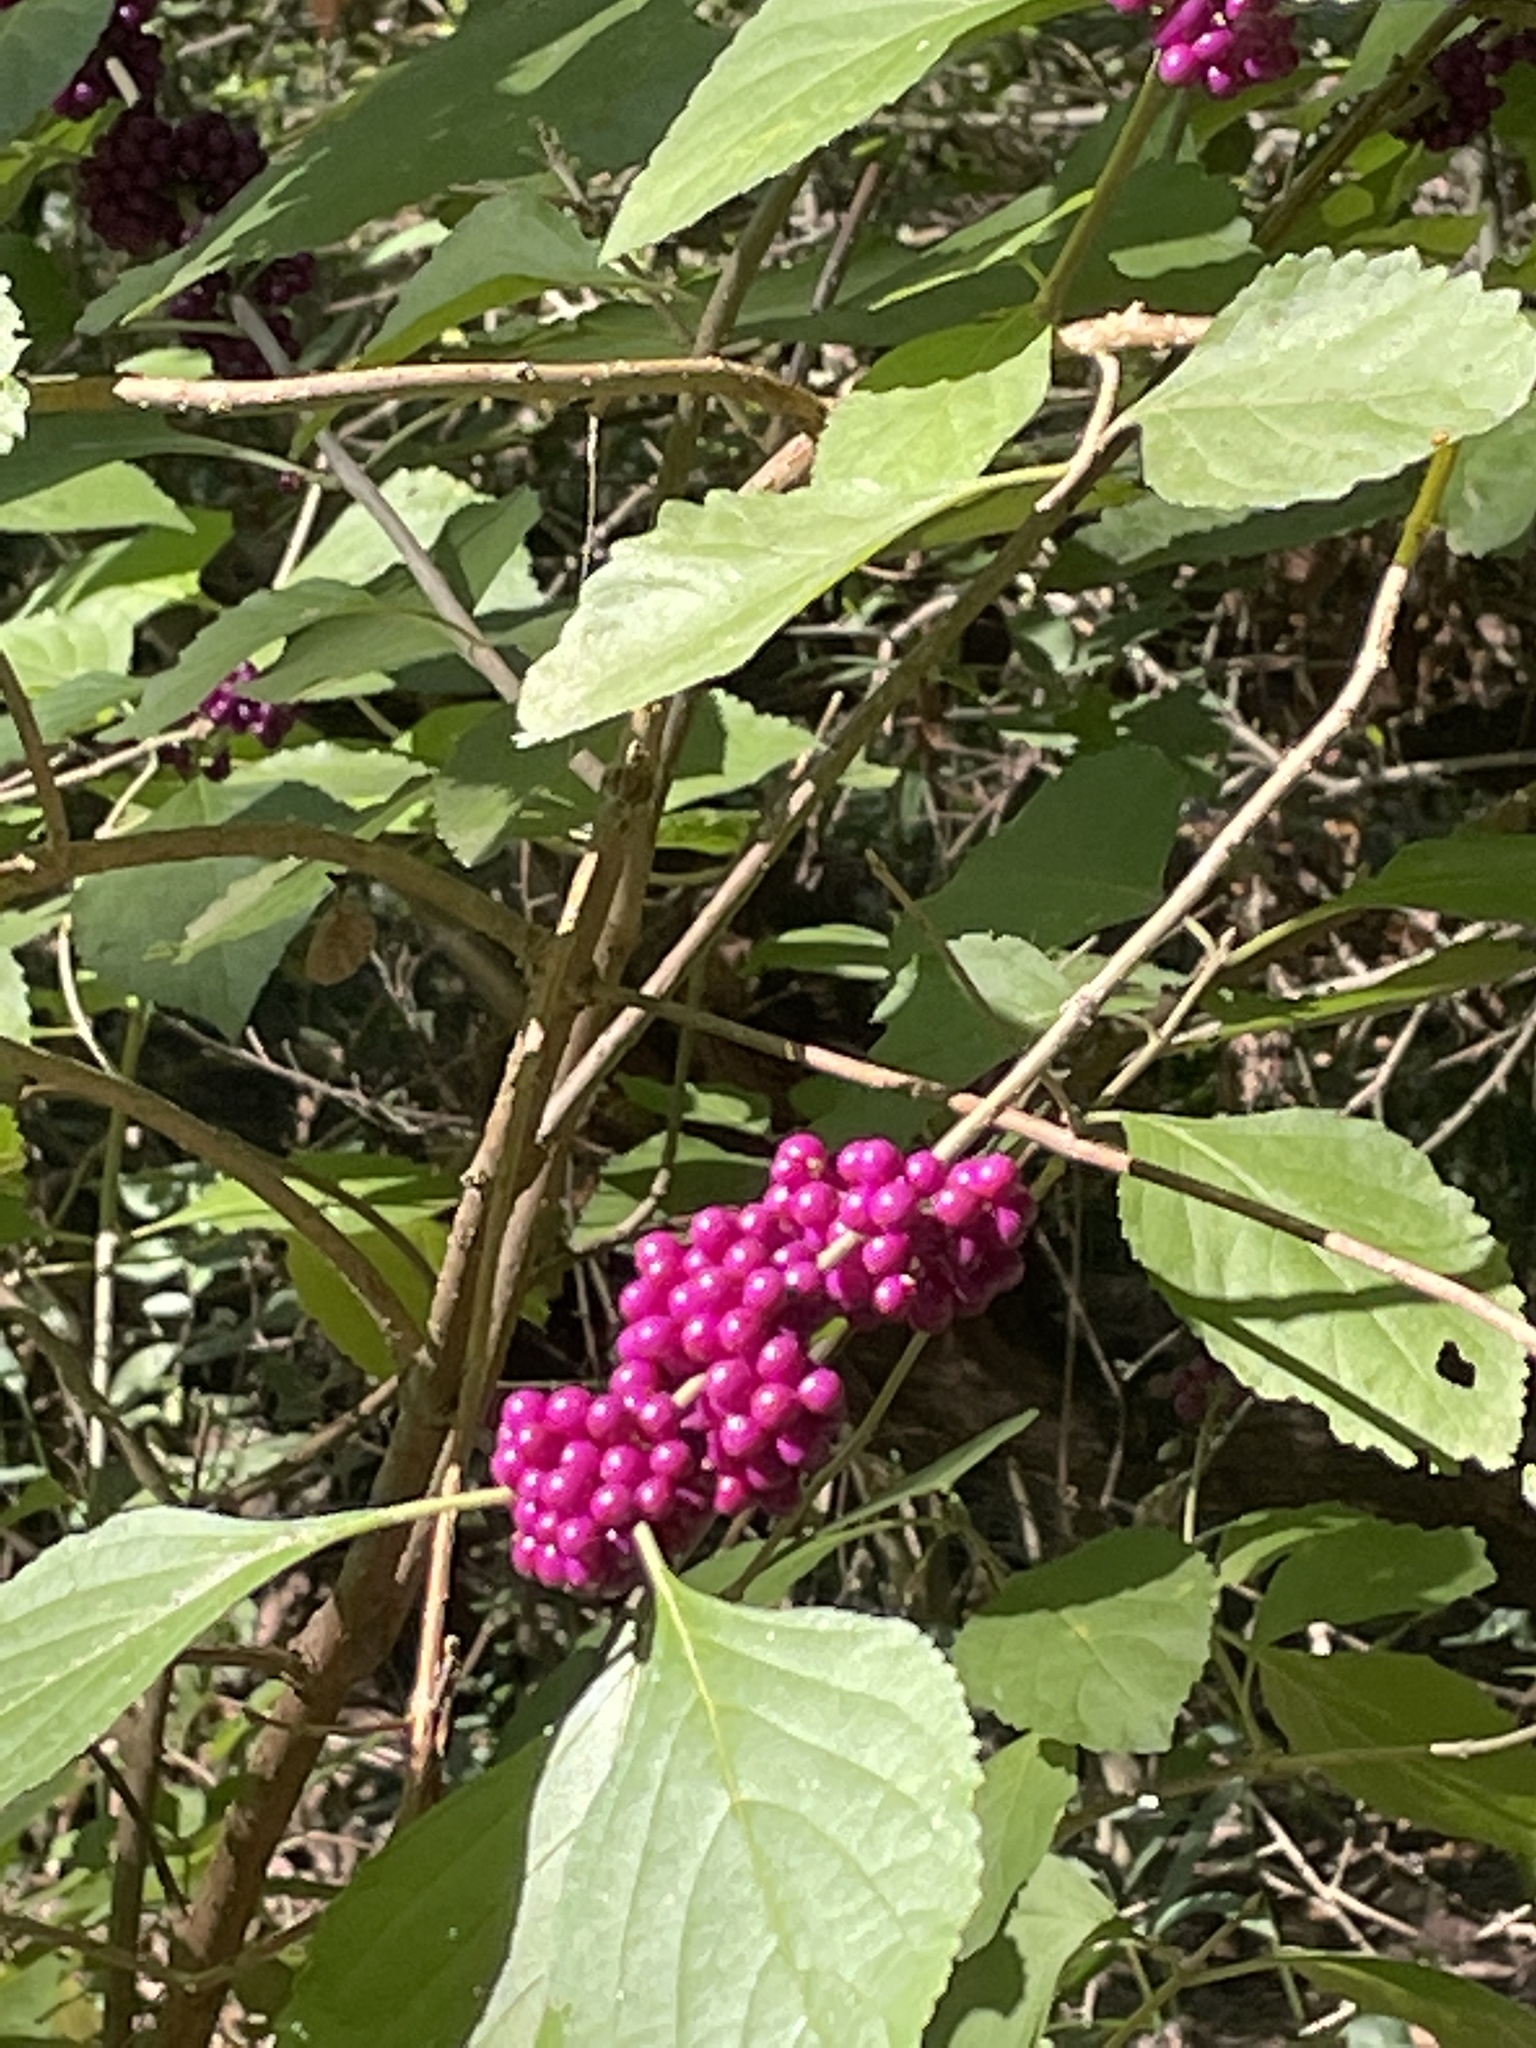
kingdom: Plantae
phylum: Tracheophyta
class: Magnoliopsida
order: Lamiales
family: Lamiaceae
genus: Callicarpa
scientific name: Callicarpa americana
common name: American beautyberry
